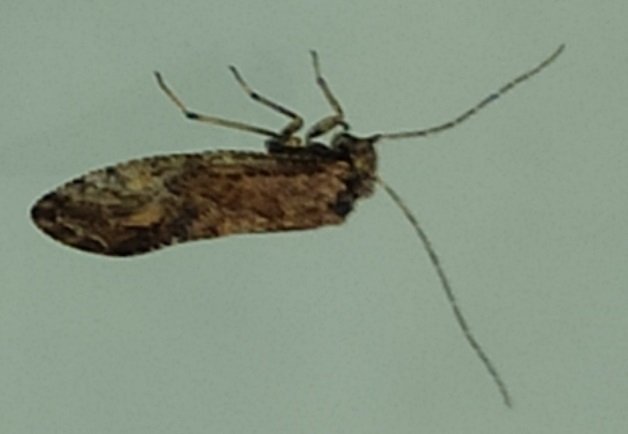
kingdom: Animalia
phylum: Arthropoda
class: Insecta
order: Psocodea
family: Psocidae
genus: Loensia
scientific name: Loensia variegata
